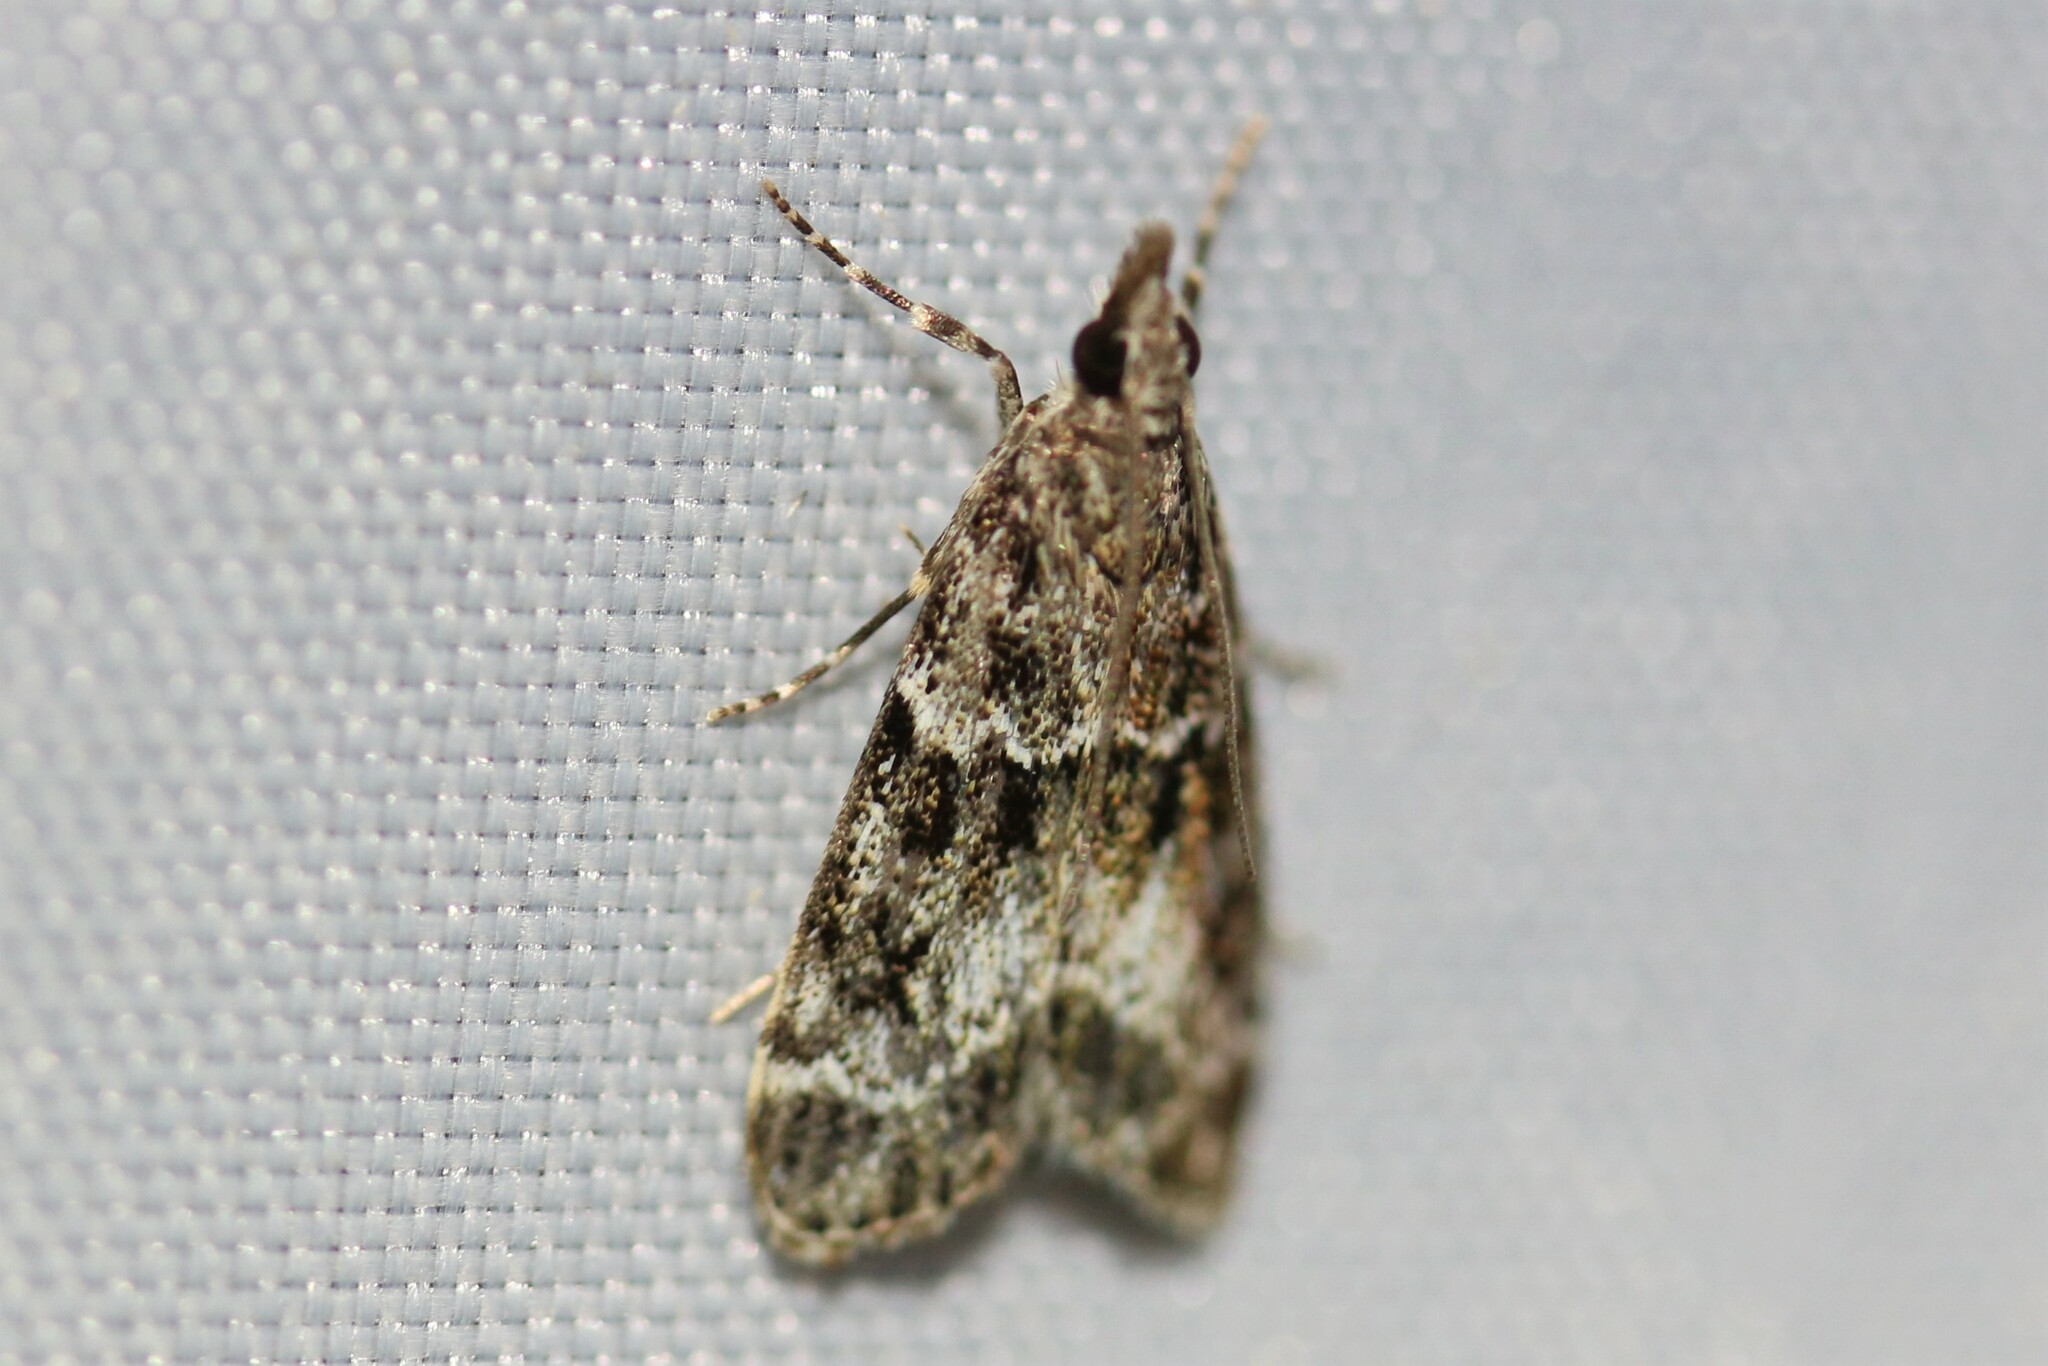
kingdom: Animalia
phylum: Arthropoda
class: Insecta
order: Lepidoptera
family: Crambidae
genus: Eudonia
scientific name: Eudonia mercurella
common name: Small grey
